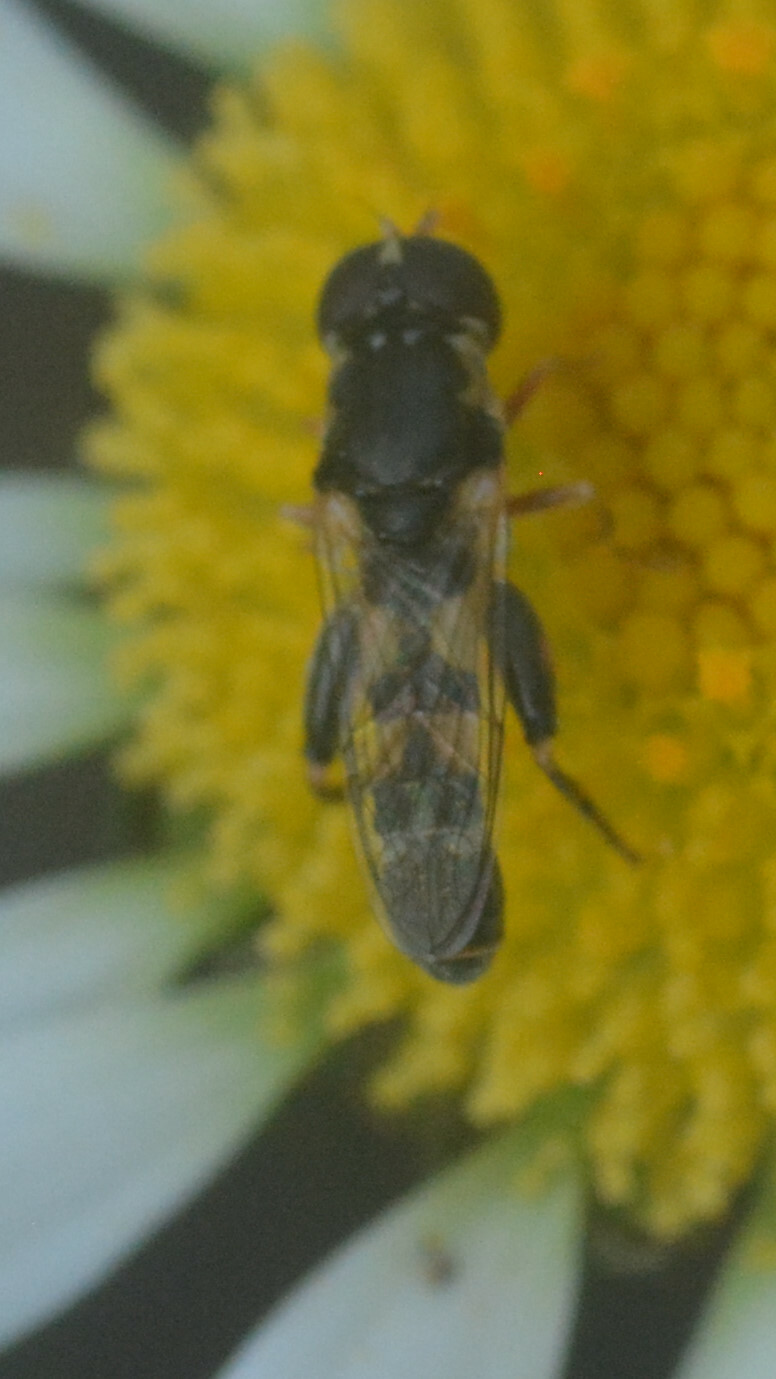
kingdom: Animalia
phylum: Arthropoda
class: Insecta
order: Diptera
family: Syrphidae
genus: Syritta
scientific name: Syritta pipiens
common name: Hover fly
